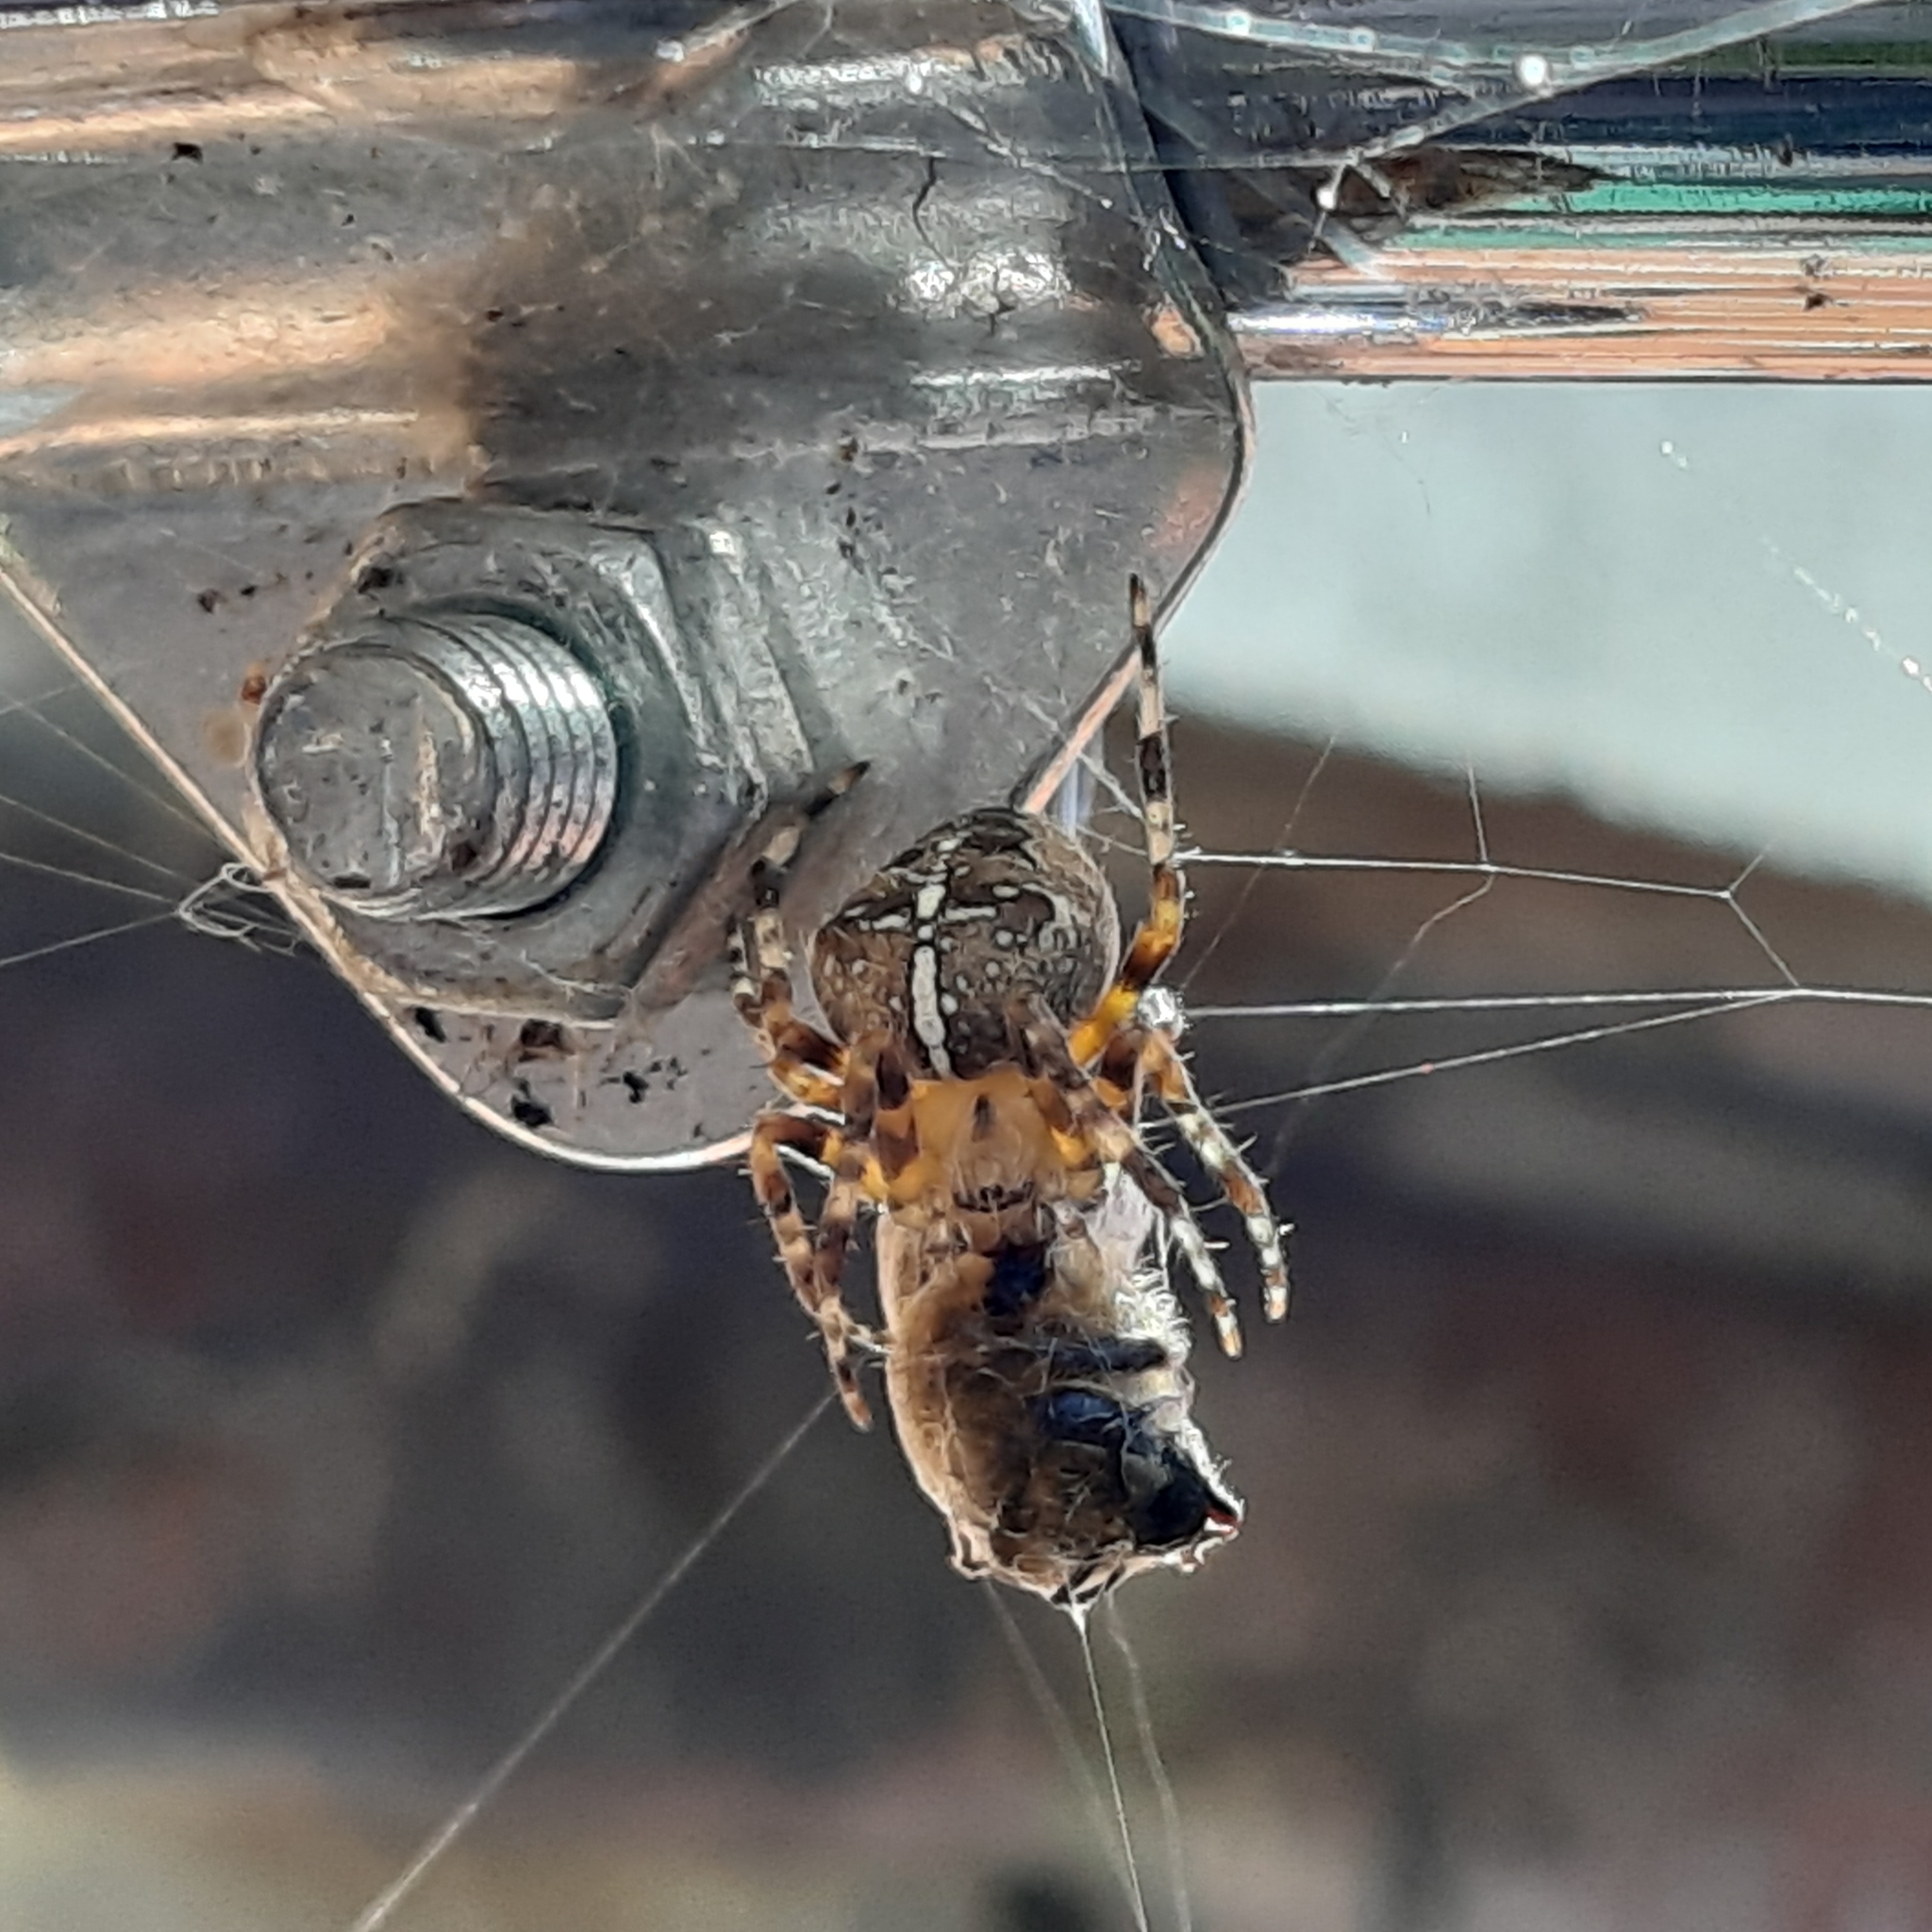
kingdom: Animalia
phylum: Arthropoda
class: Arachnida
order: Araneae
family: Araneidae
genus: Araneus
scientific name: Araneus diadematus
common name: Cross orbweaver
